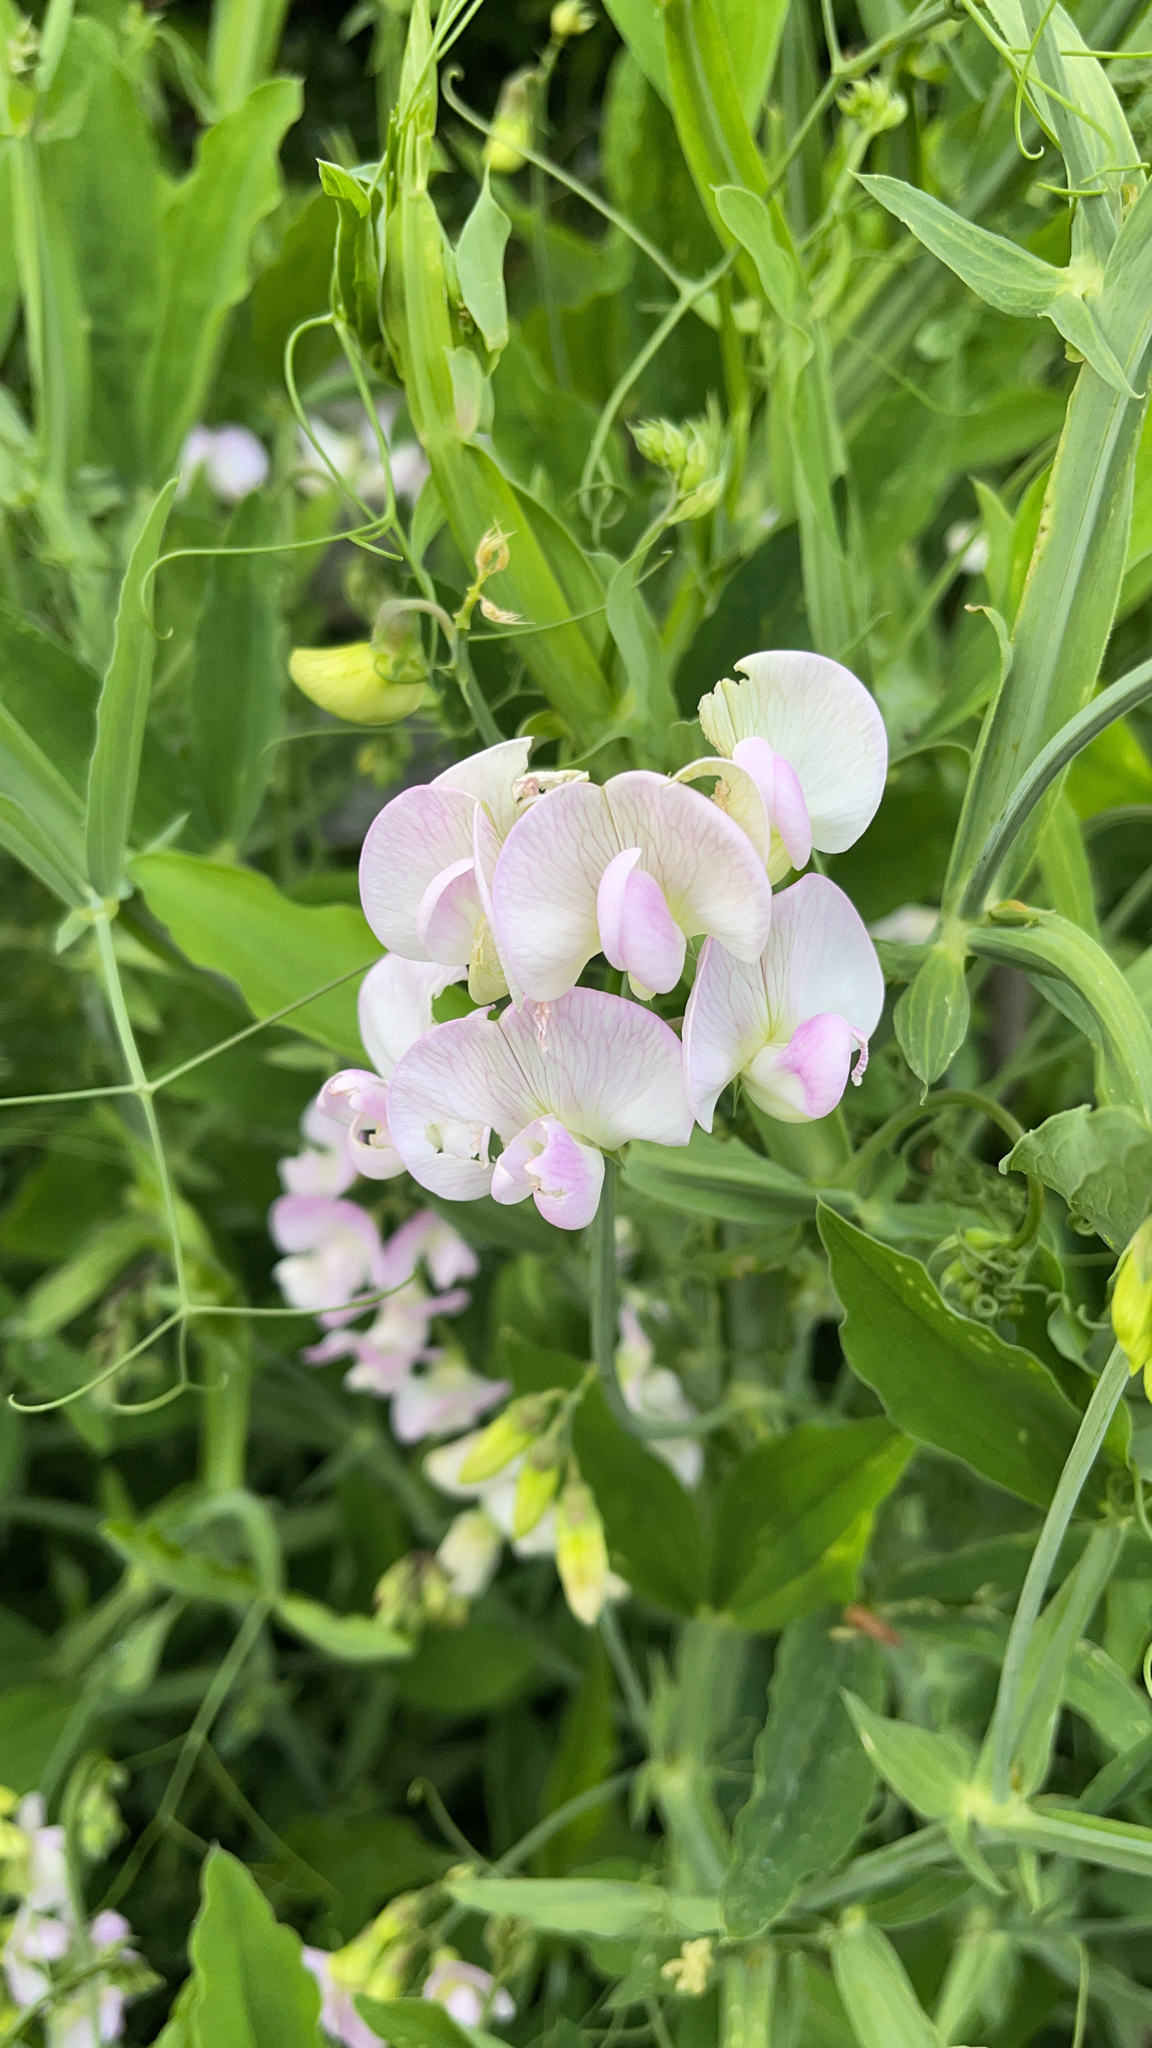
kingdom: Plantae
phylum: Tracheophyta
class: Magnoliopsida
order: Fabales
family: Fabaceae
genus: Lathyrus
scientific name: Lathyrus latifolius
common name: Perennial pea
